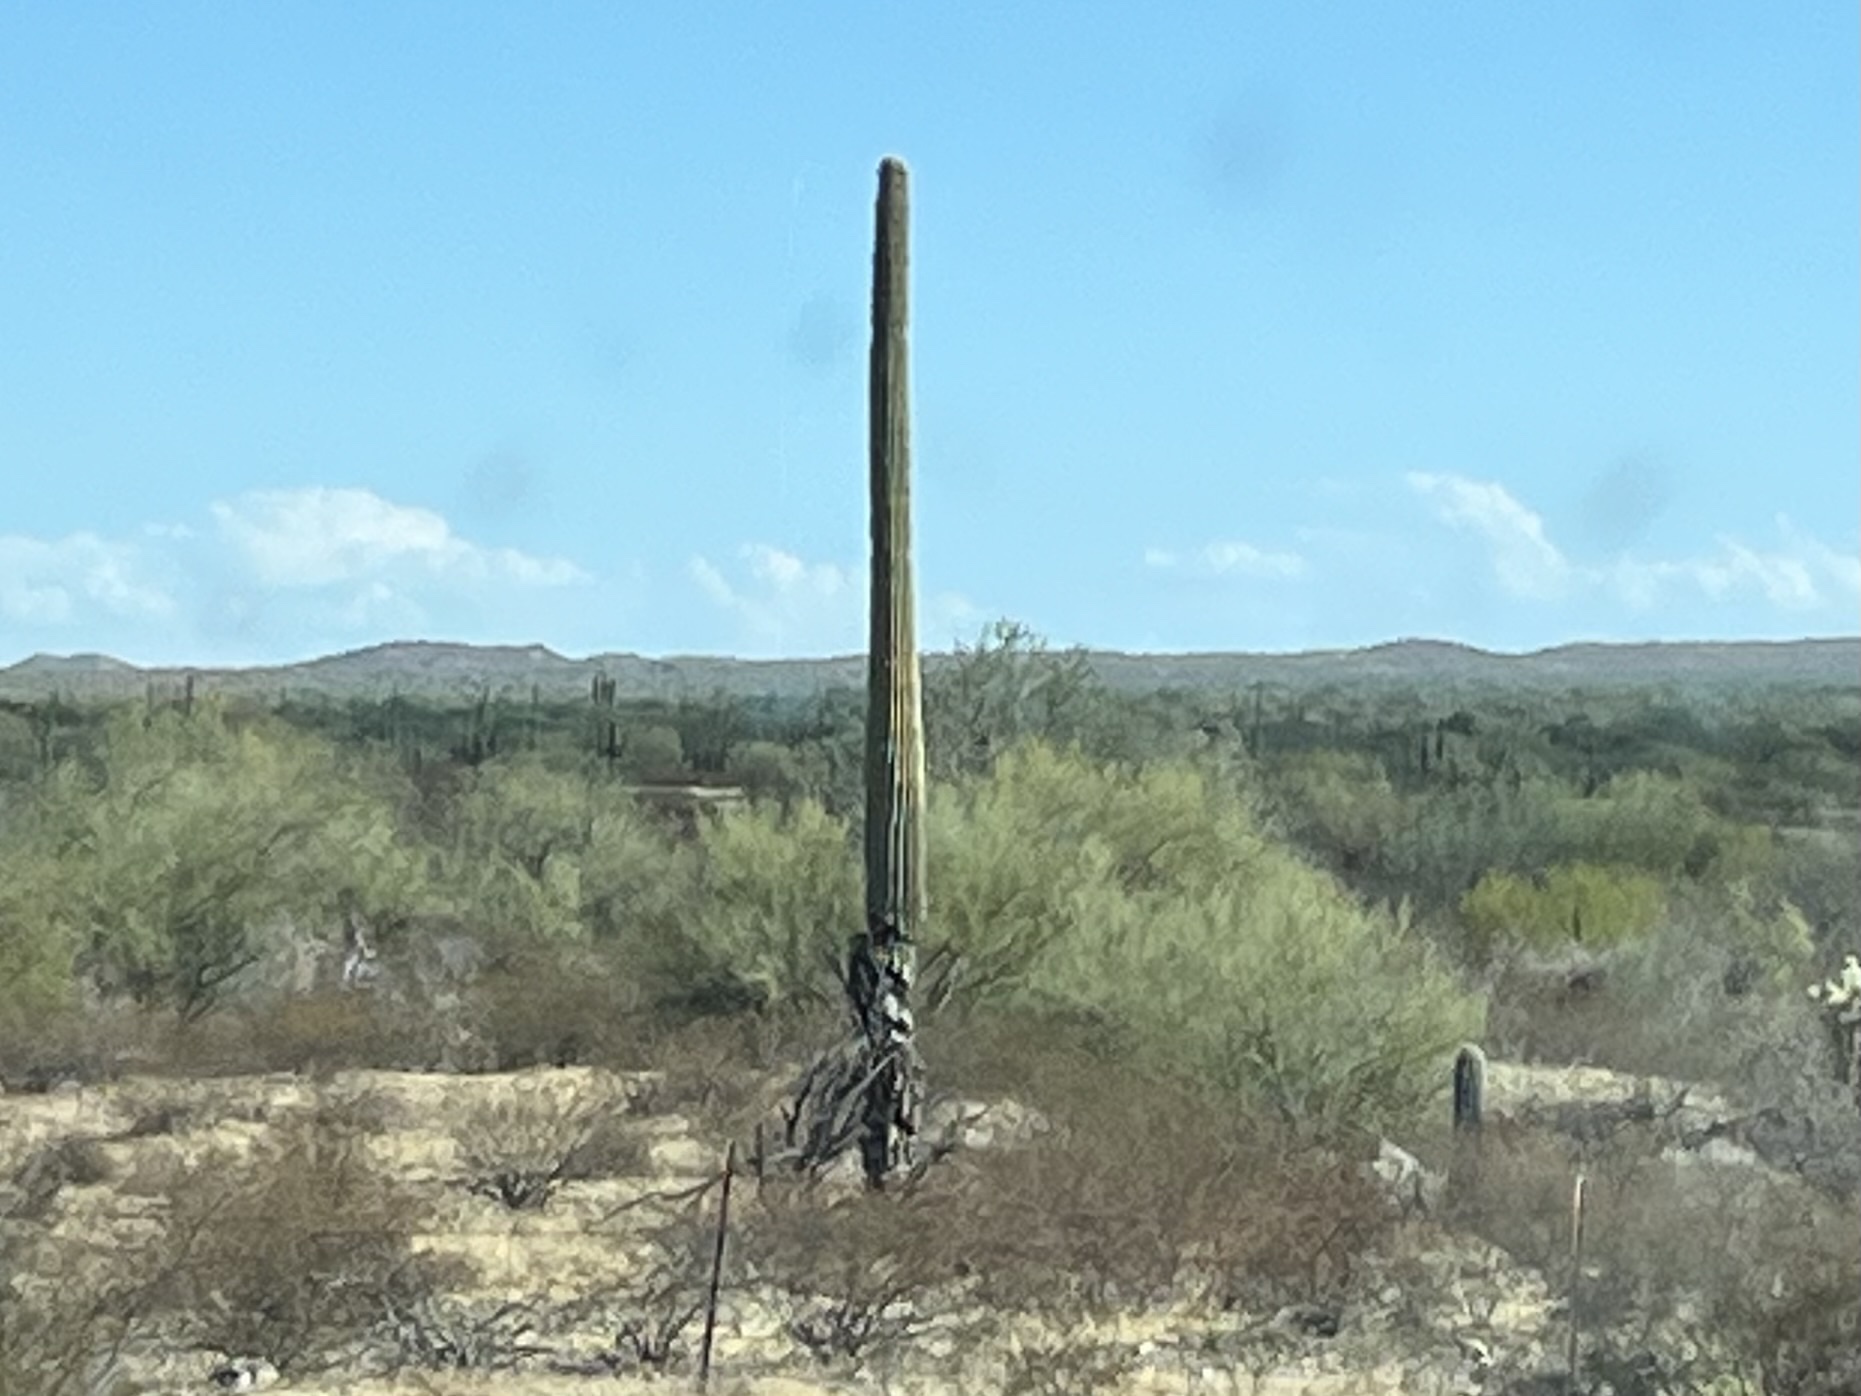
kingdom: Plantae
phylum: Tracheophyta
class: Magnoliopsida
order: Caryophyllales
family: Cactaceae
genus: Carnegiea
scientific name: Carnegiea gigantea
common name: Saguaro
